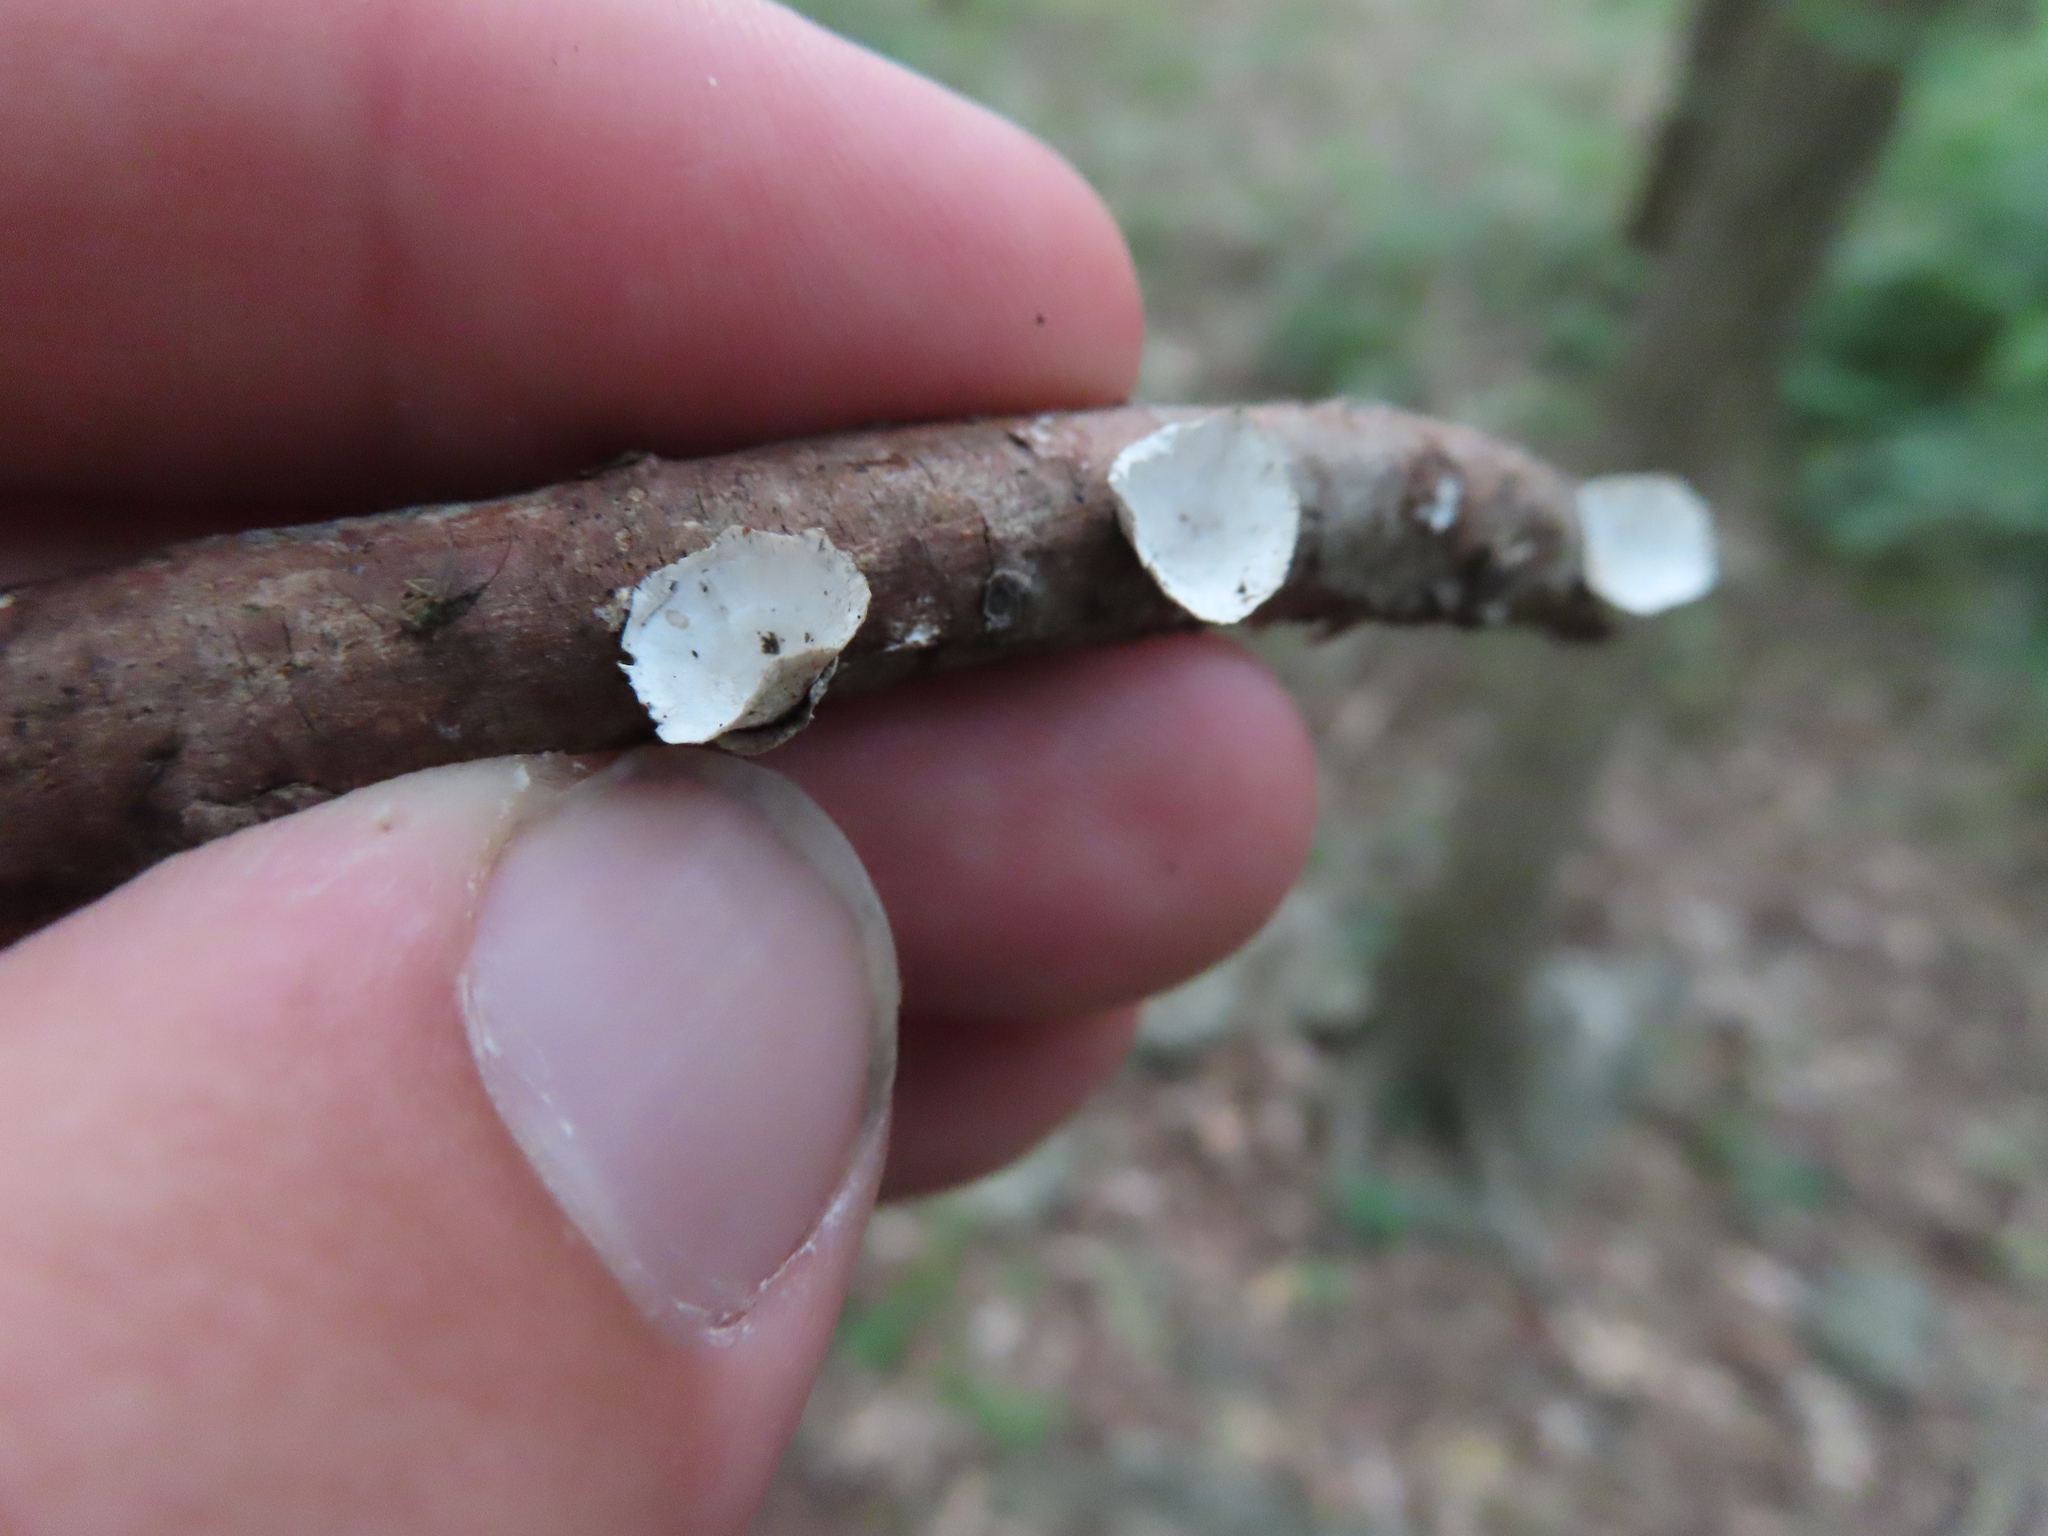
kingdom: Fungi
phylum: Basidiomycota
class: Agaricomycetes
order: Polyporales
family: Polyporaceae
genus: Poronidulus
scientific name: Poronidulus conchifer
